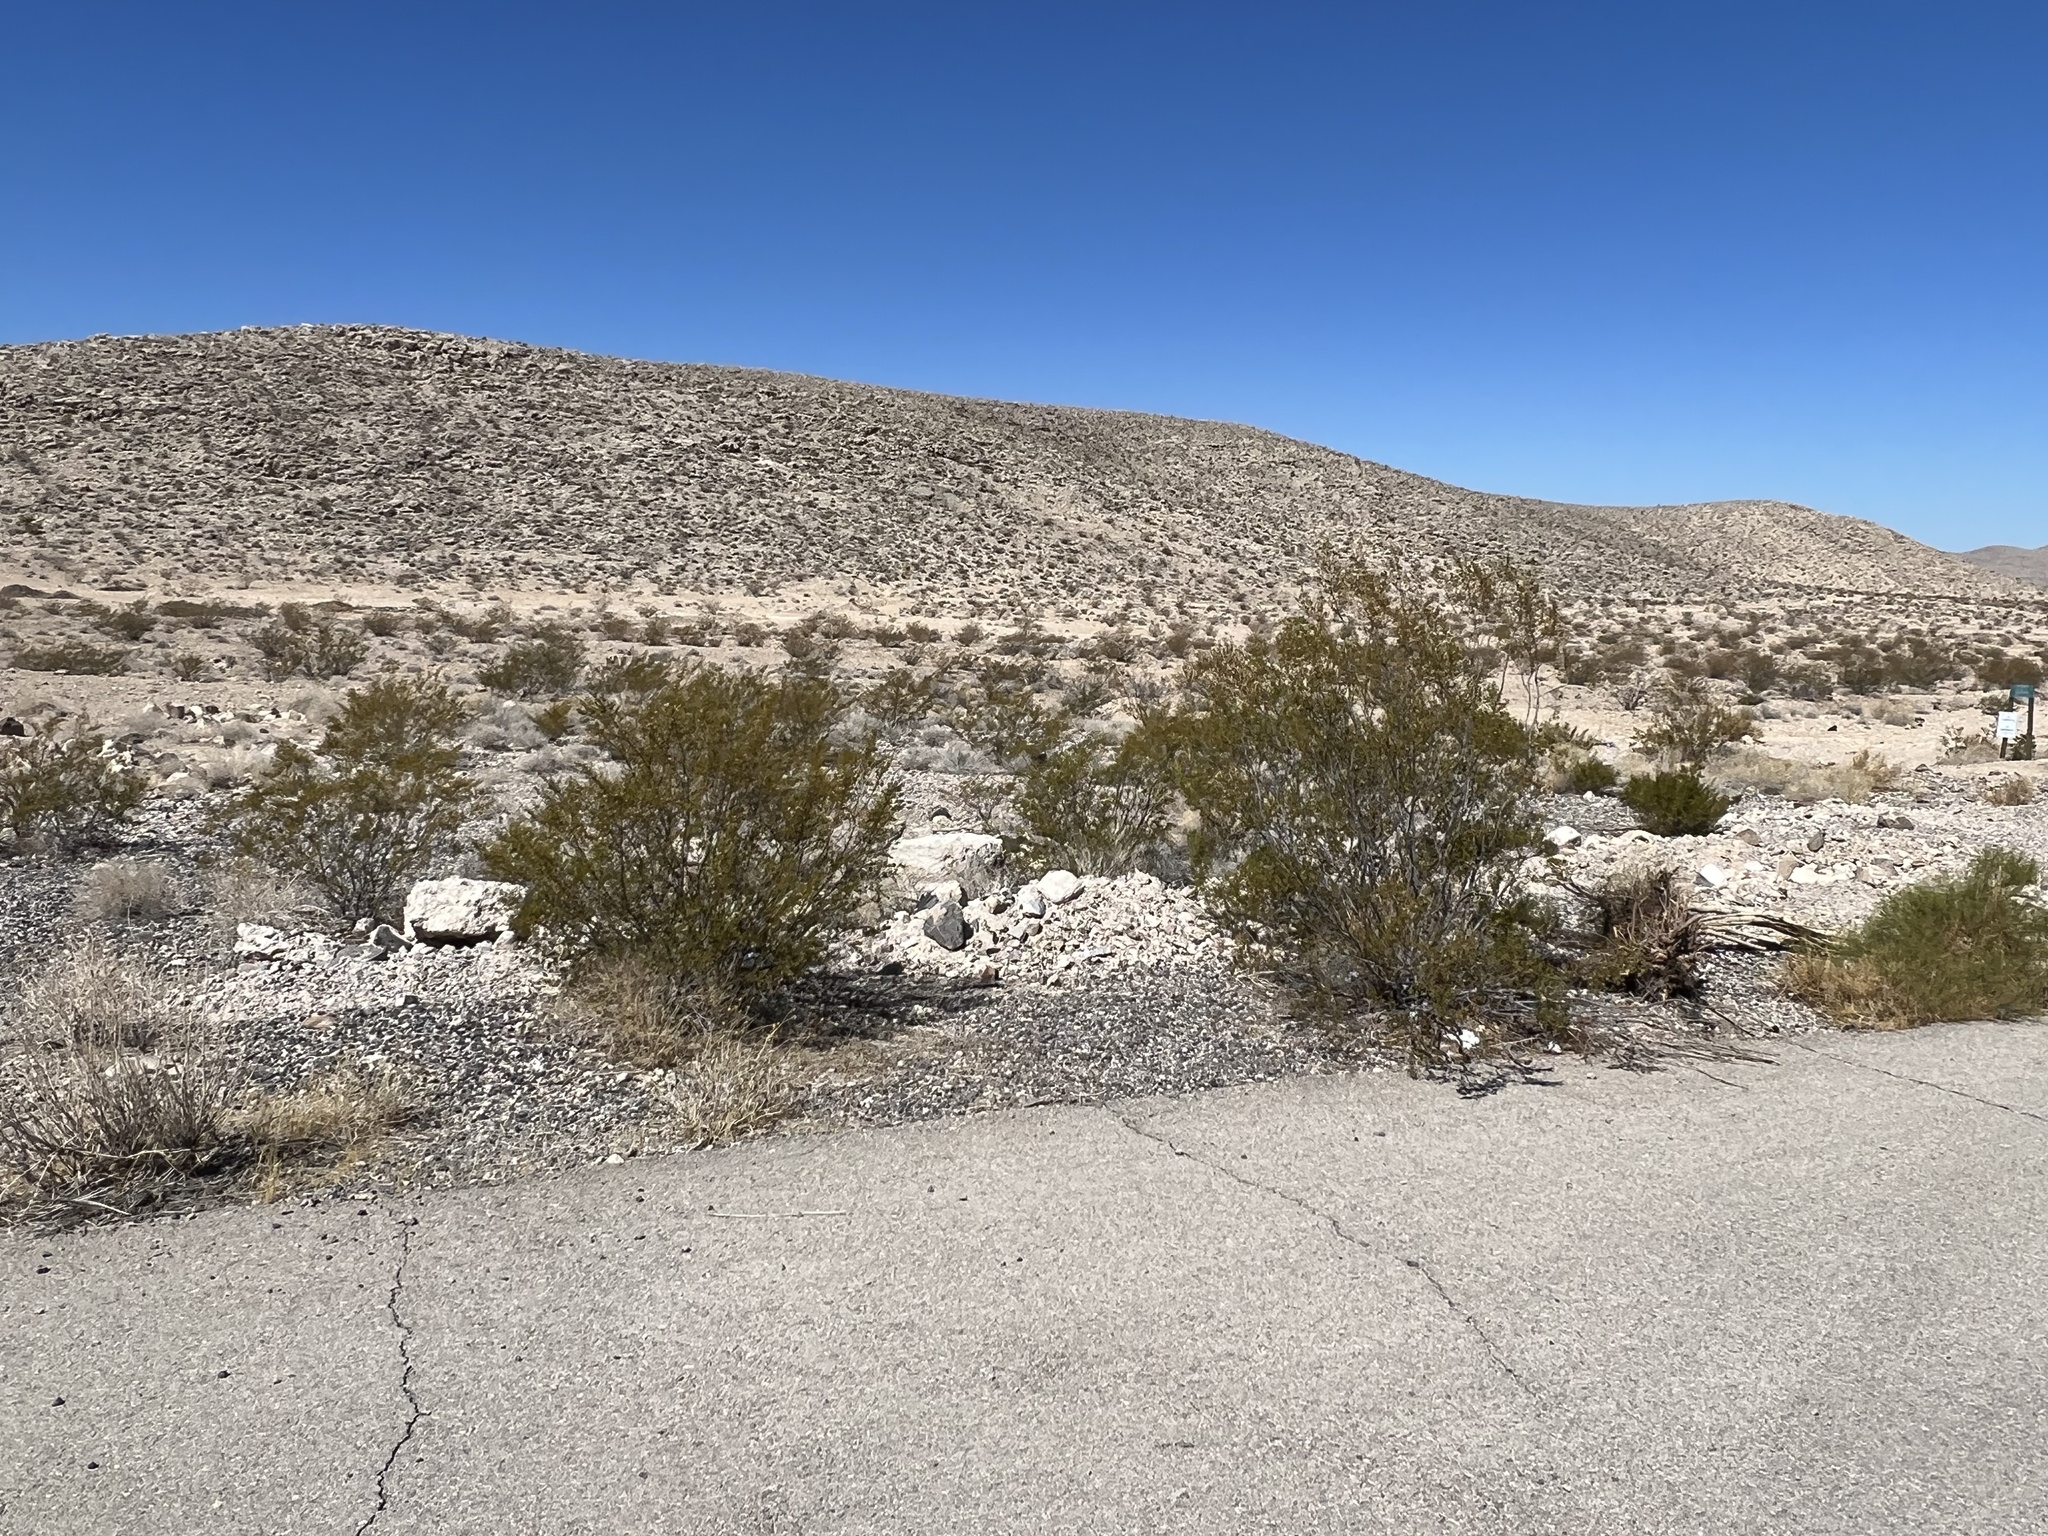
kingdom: Plantae
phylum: Tracheophyta
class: Magnoliopsida
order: Zygophyllales
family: Zygophyllaceae
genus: Larrea
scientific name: Larrea tridentata
